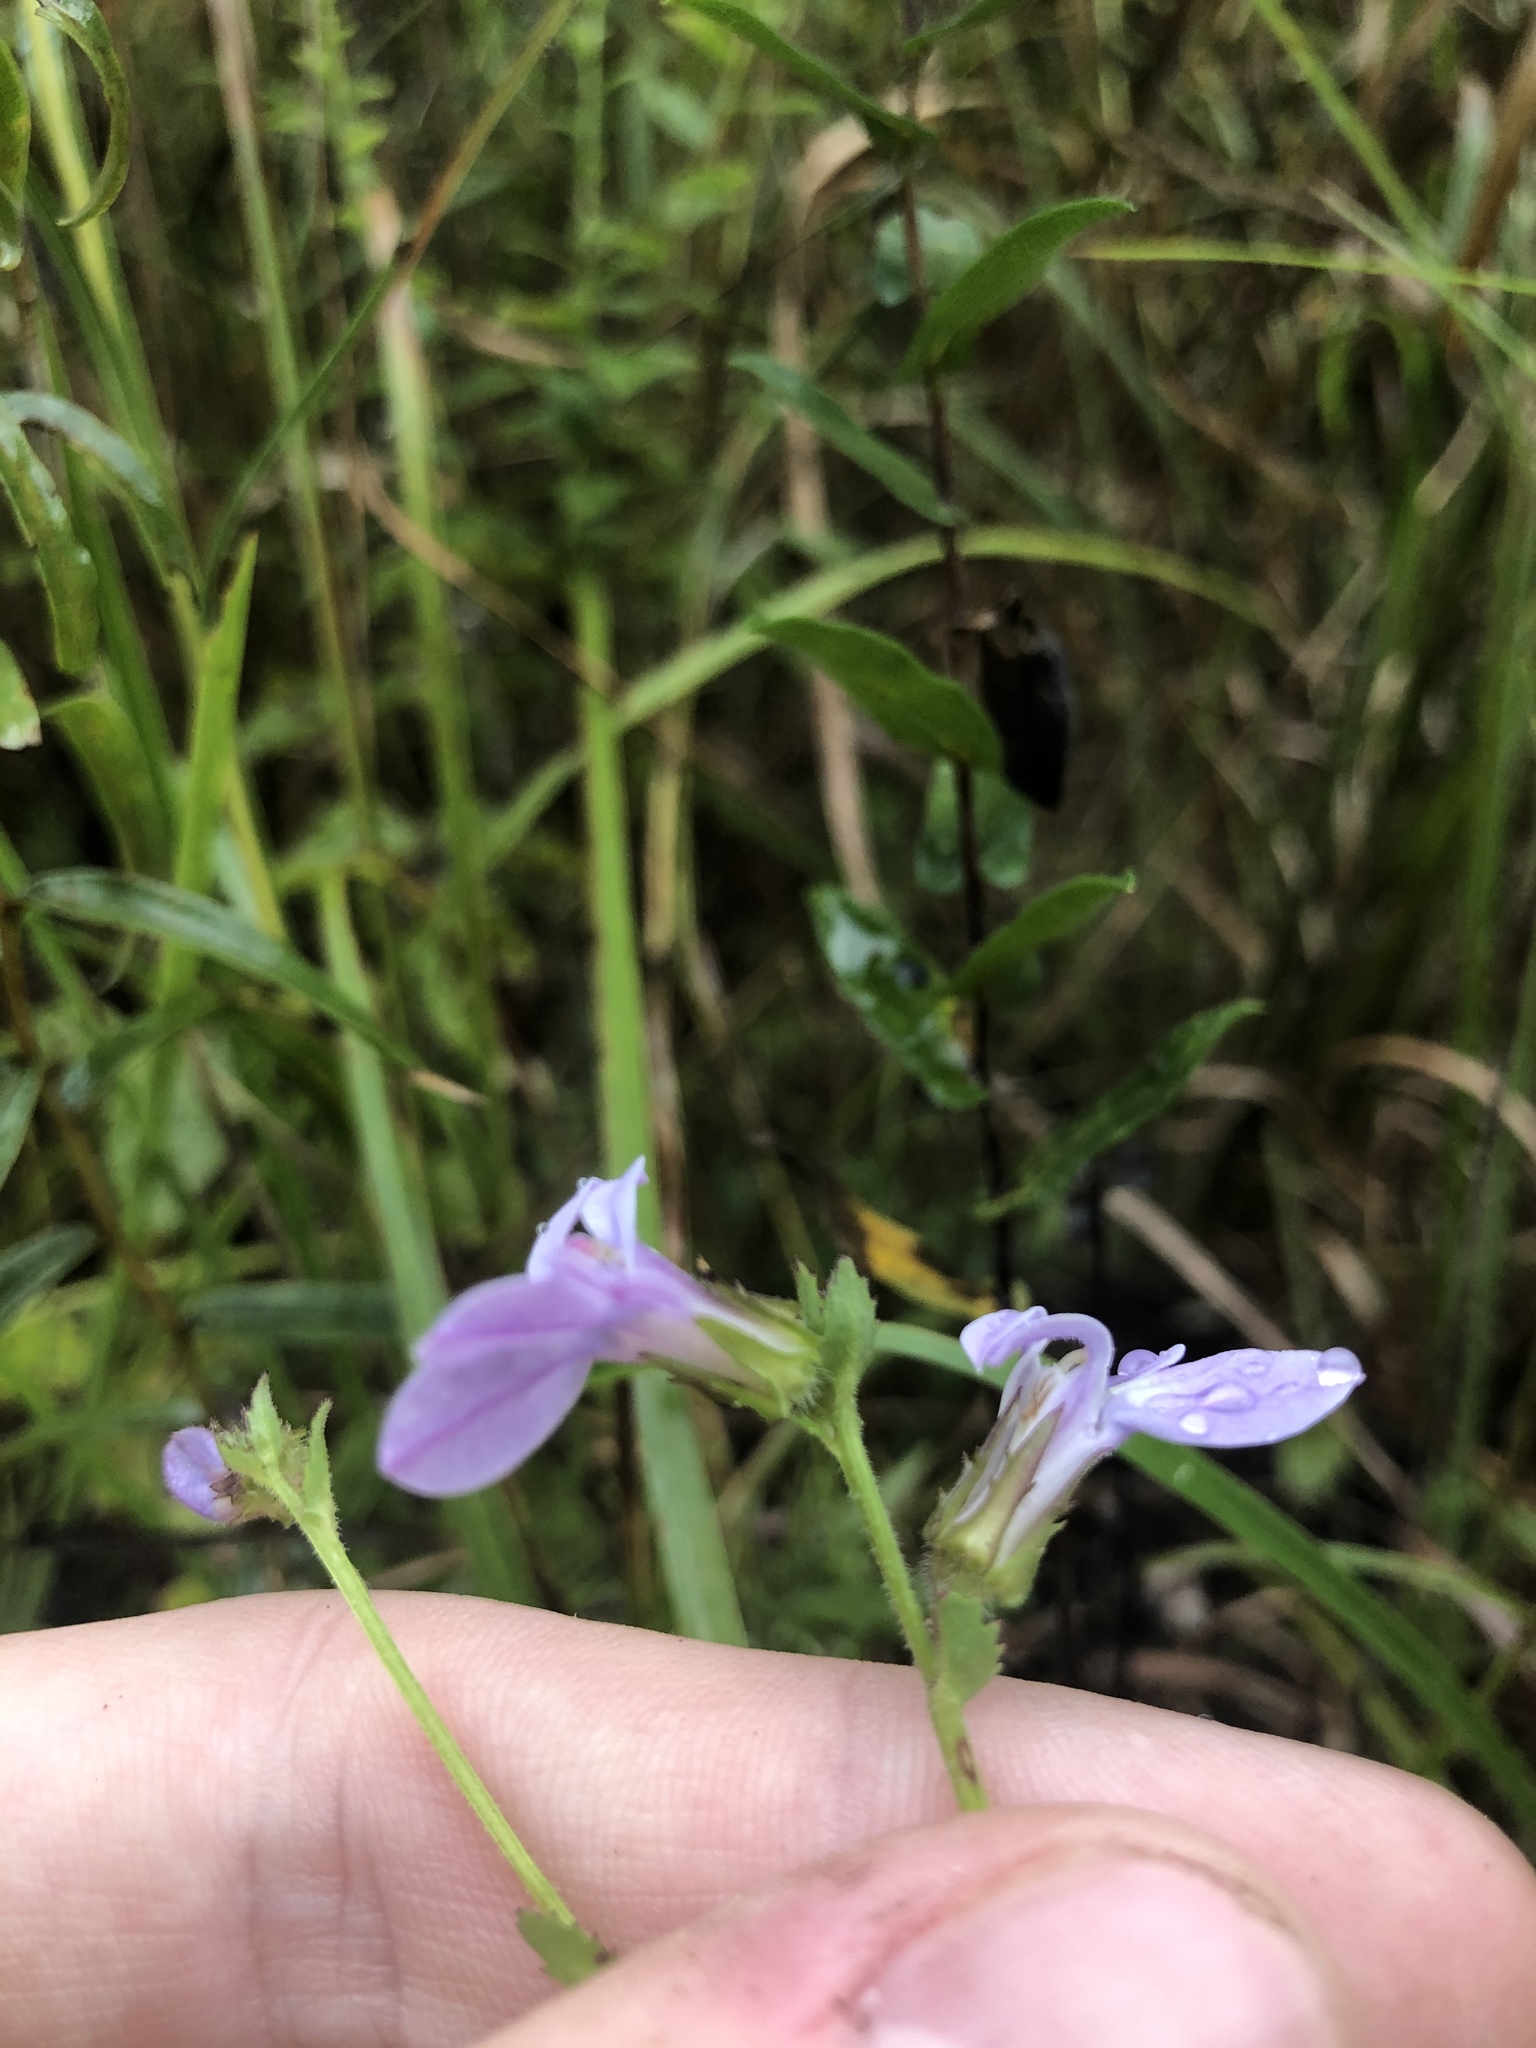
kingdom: Plantae
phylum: Tracheophyta
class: Magnoliopsida
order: Asterales
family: Campanulaceae
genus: Lobelia
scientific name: Lobelia rogersii
